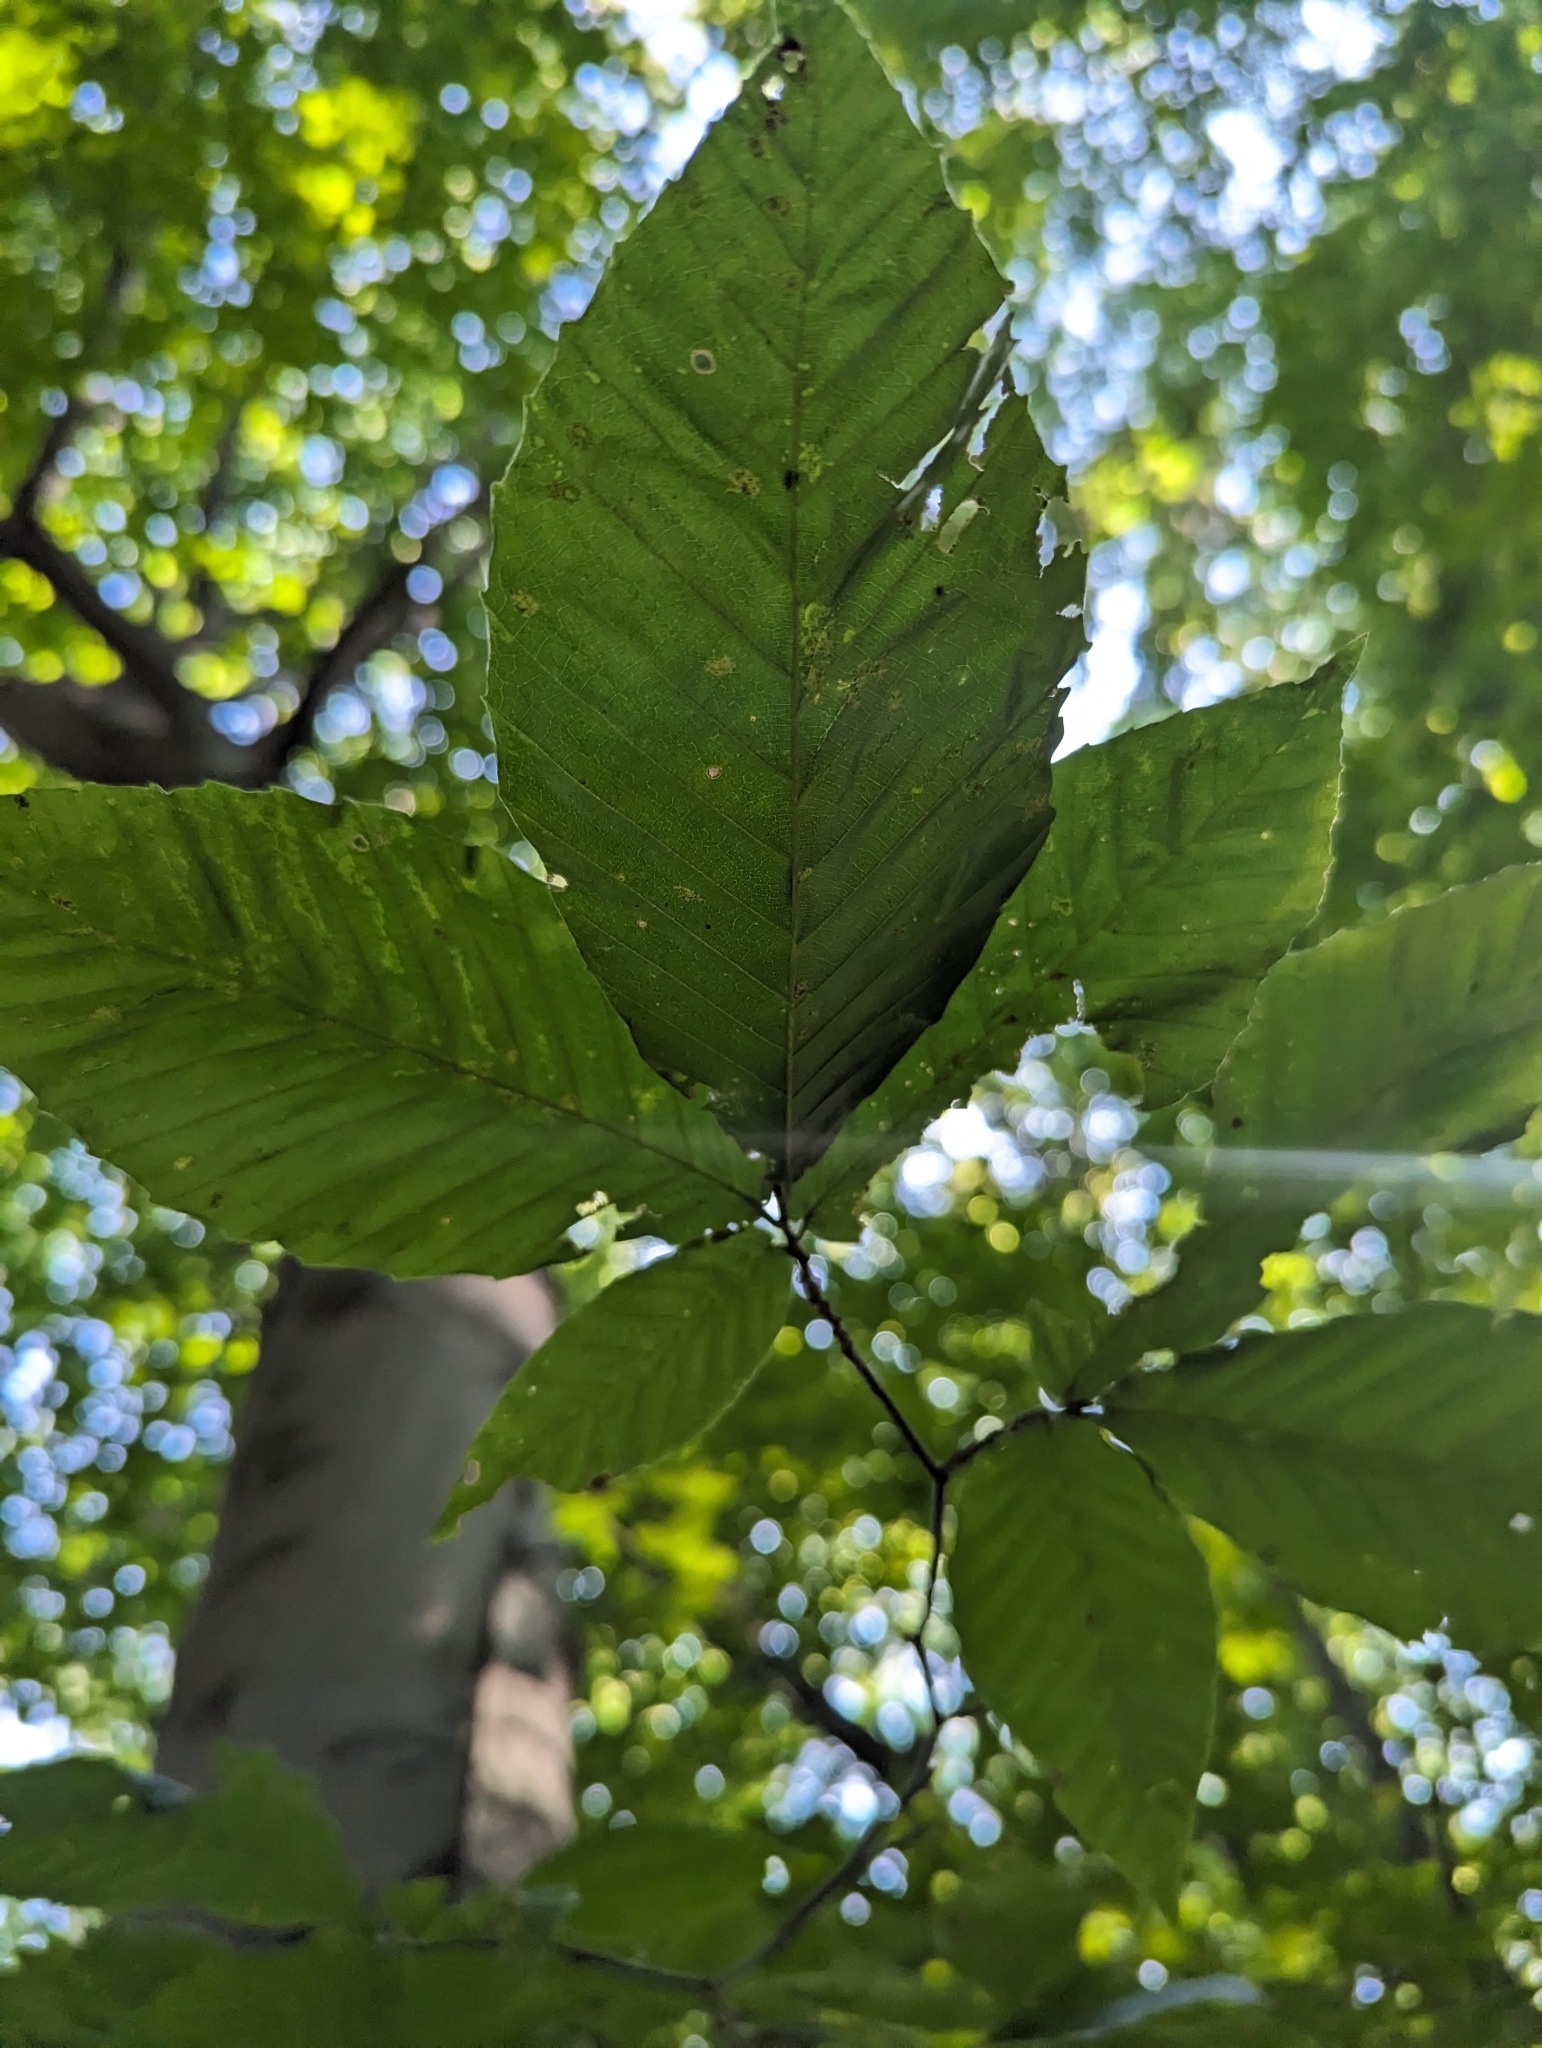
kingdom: Plantae
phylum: Tracheophyta
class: Magnoliopsida
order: Fagales
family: Fagaceae
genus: Fagus
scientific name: Fagus grandifolia
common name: American beech
